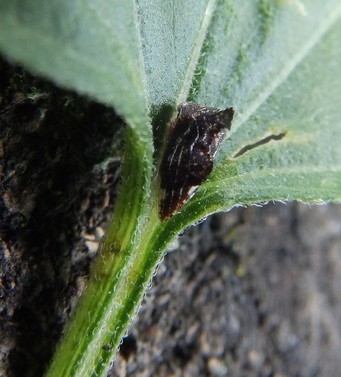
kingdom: Animalia
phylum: Arthropoda
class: Insecta
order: Hemiptera
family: Membracidae
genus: Entylia
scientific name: Entylia carinata
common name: Keeled treehopper
